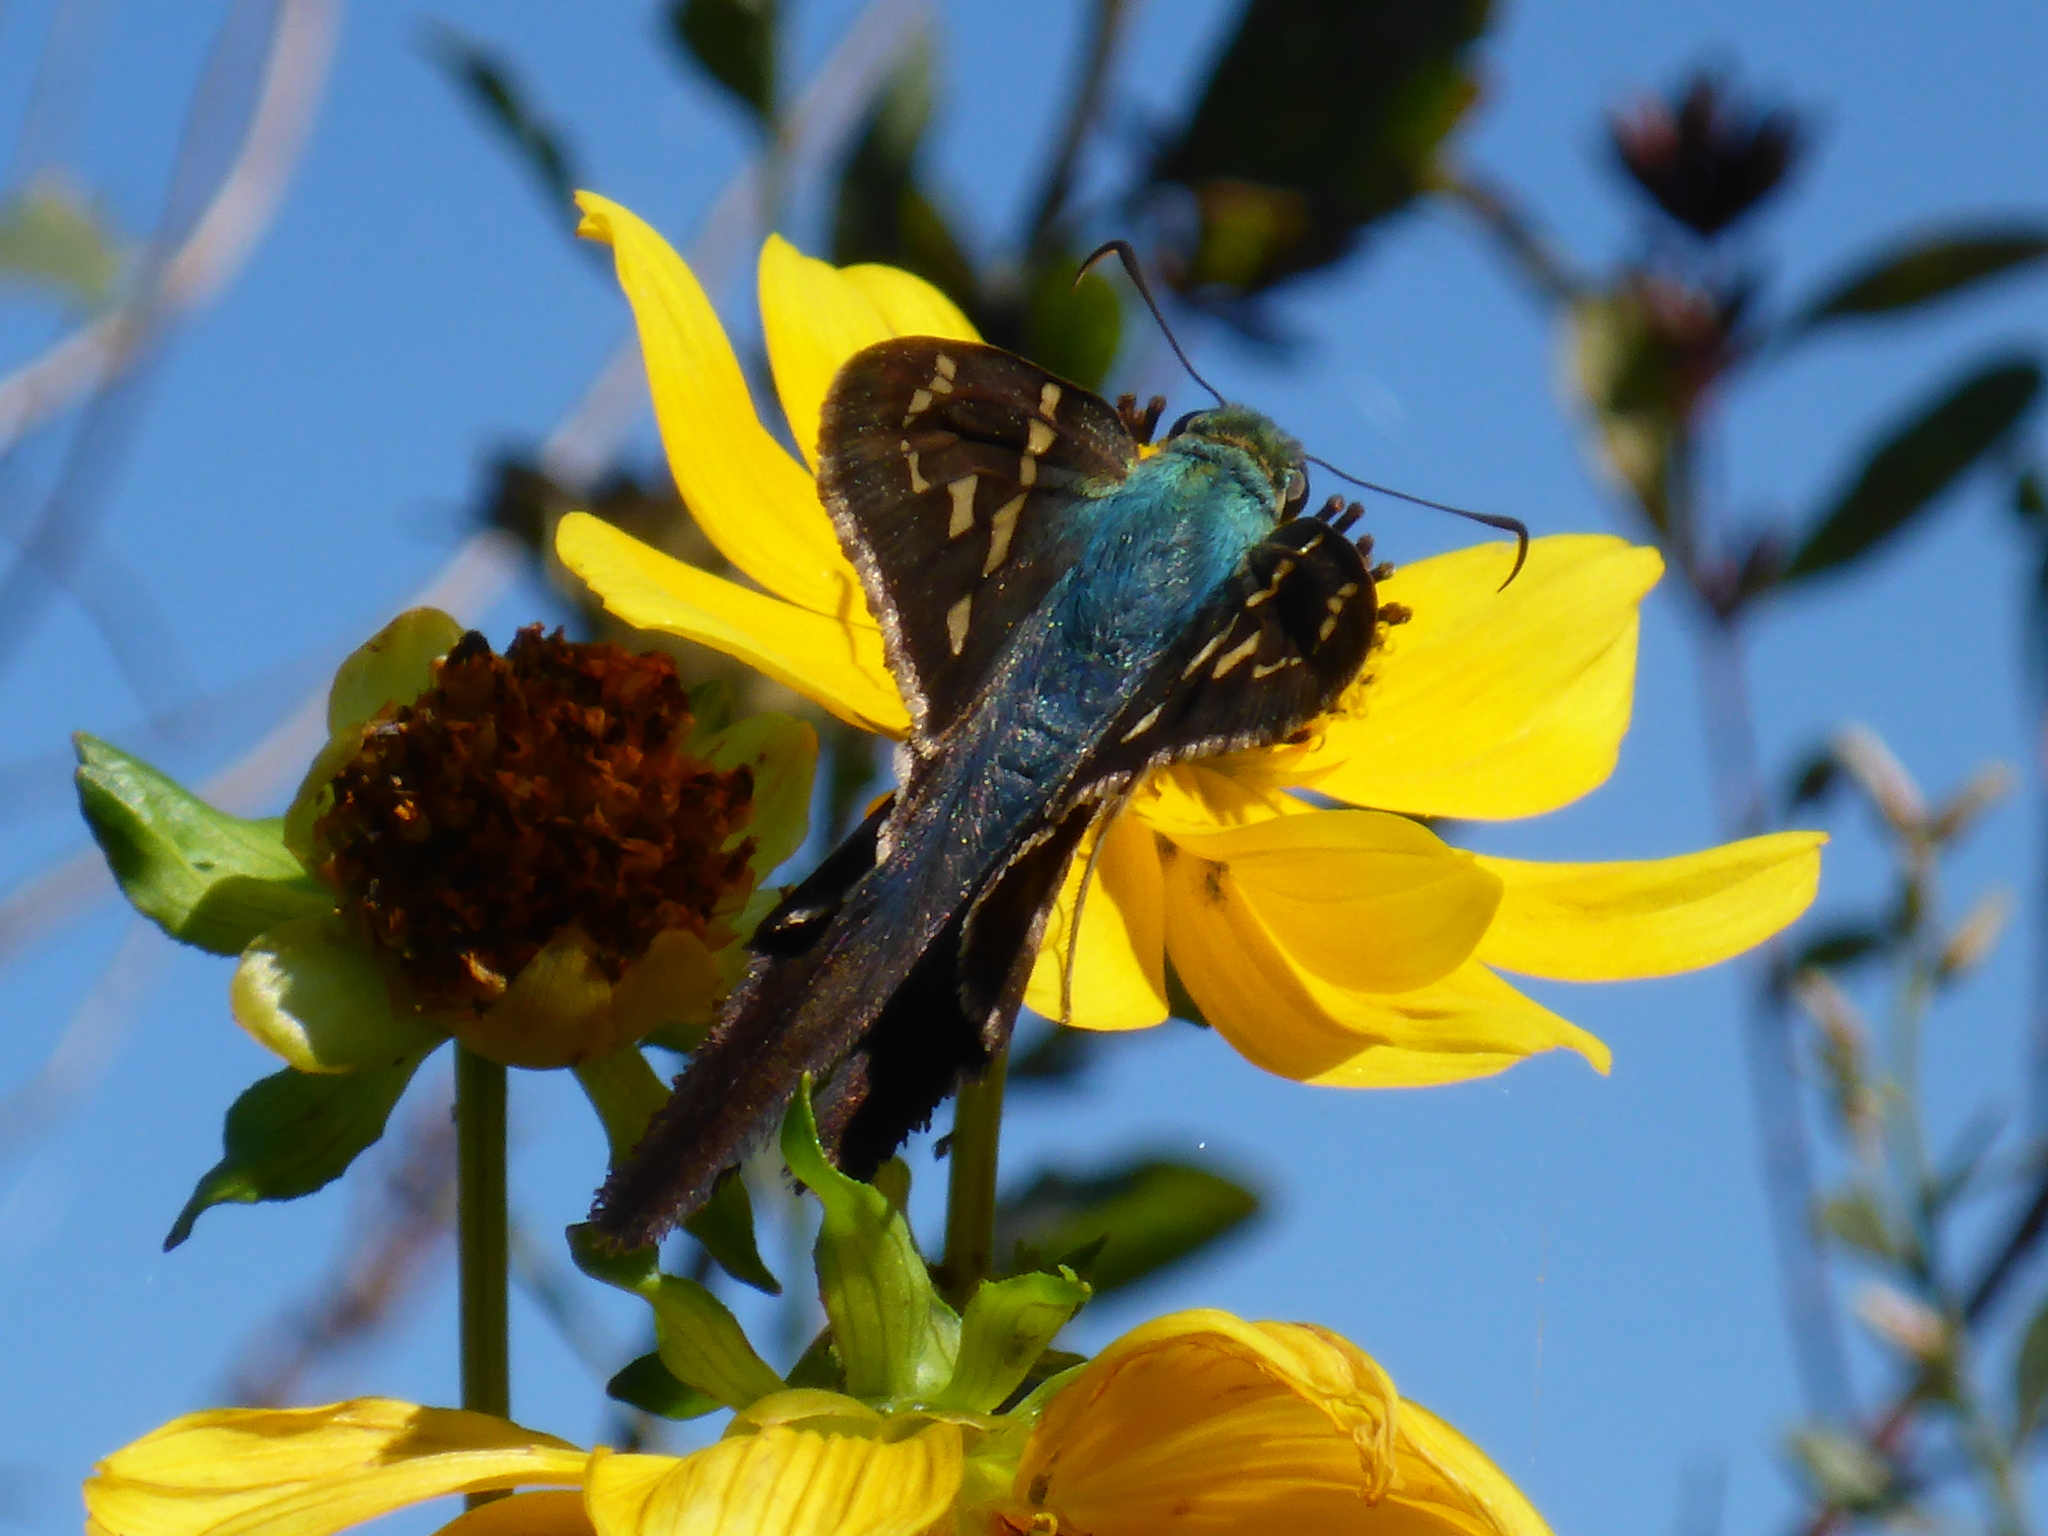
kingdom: Animalia
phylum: Arthropoda
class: Insecta
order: Lepidoptera
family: Hesperiidae
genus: Urbanus
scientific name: Urbanus proteus
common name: Long-tailed skipper
